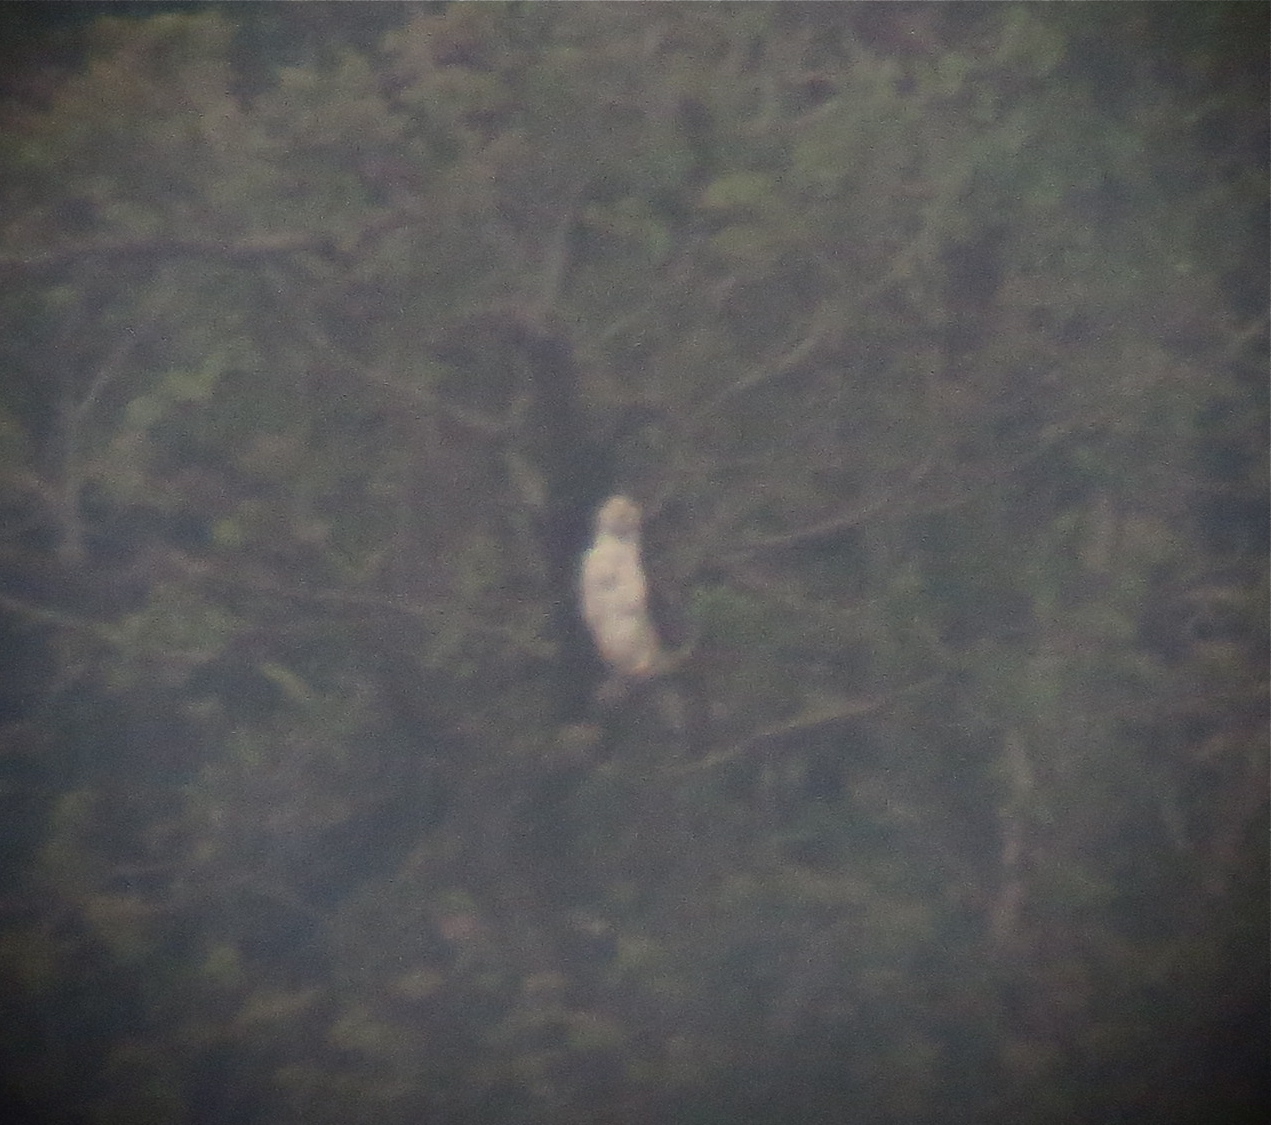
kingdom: Animalia
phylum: Chordata
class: Aves
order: Accipitriformes
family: Accipitridae
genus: Nisaetus
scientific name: Nisaetus floris
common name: Flores hawk-eagle
